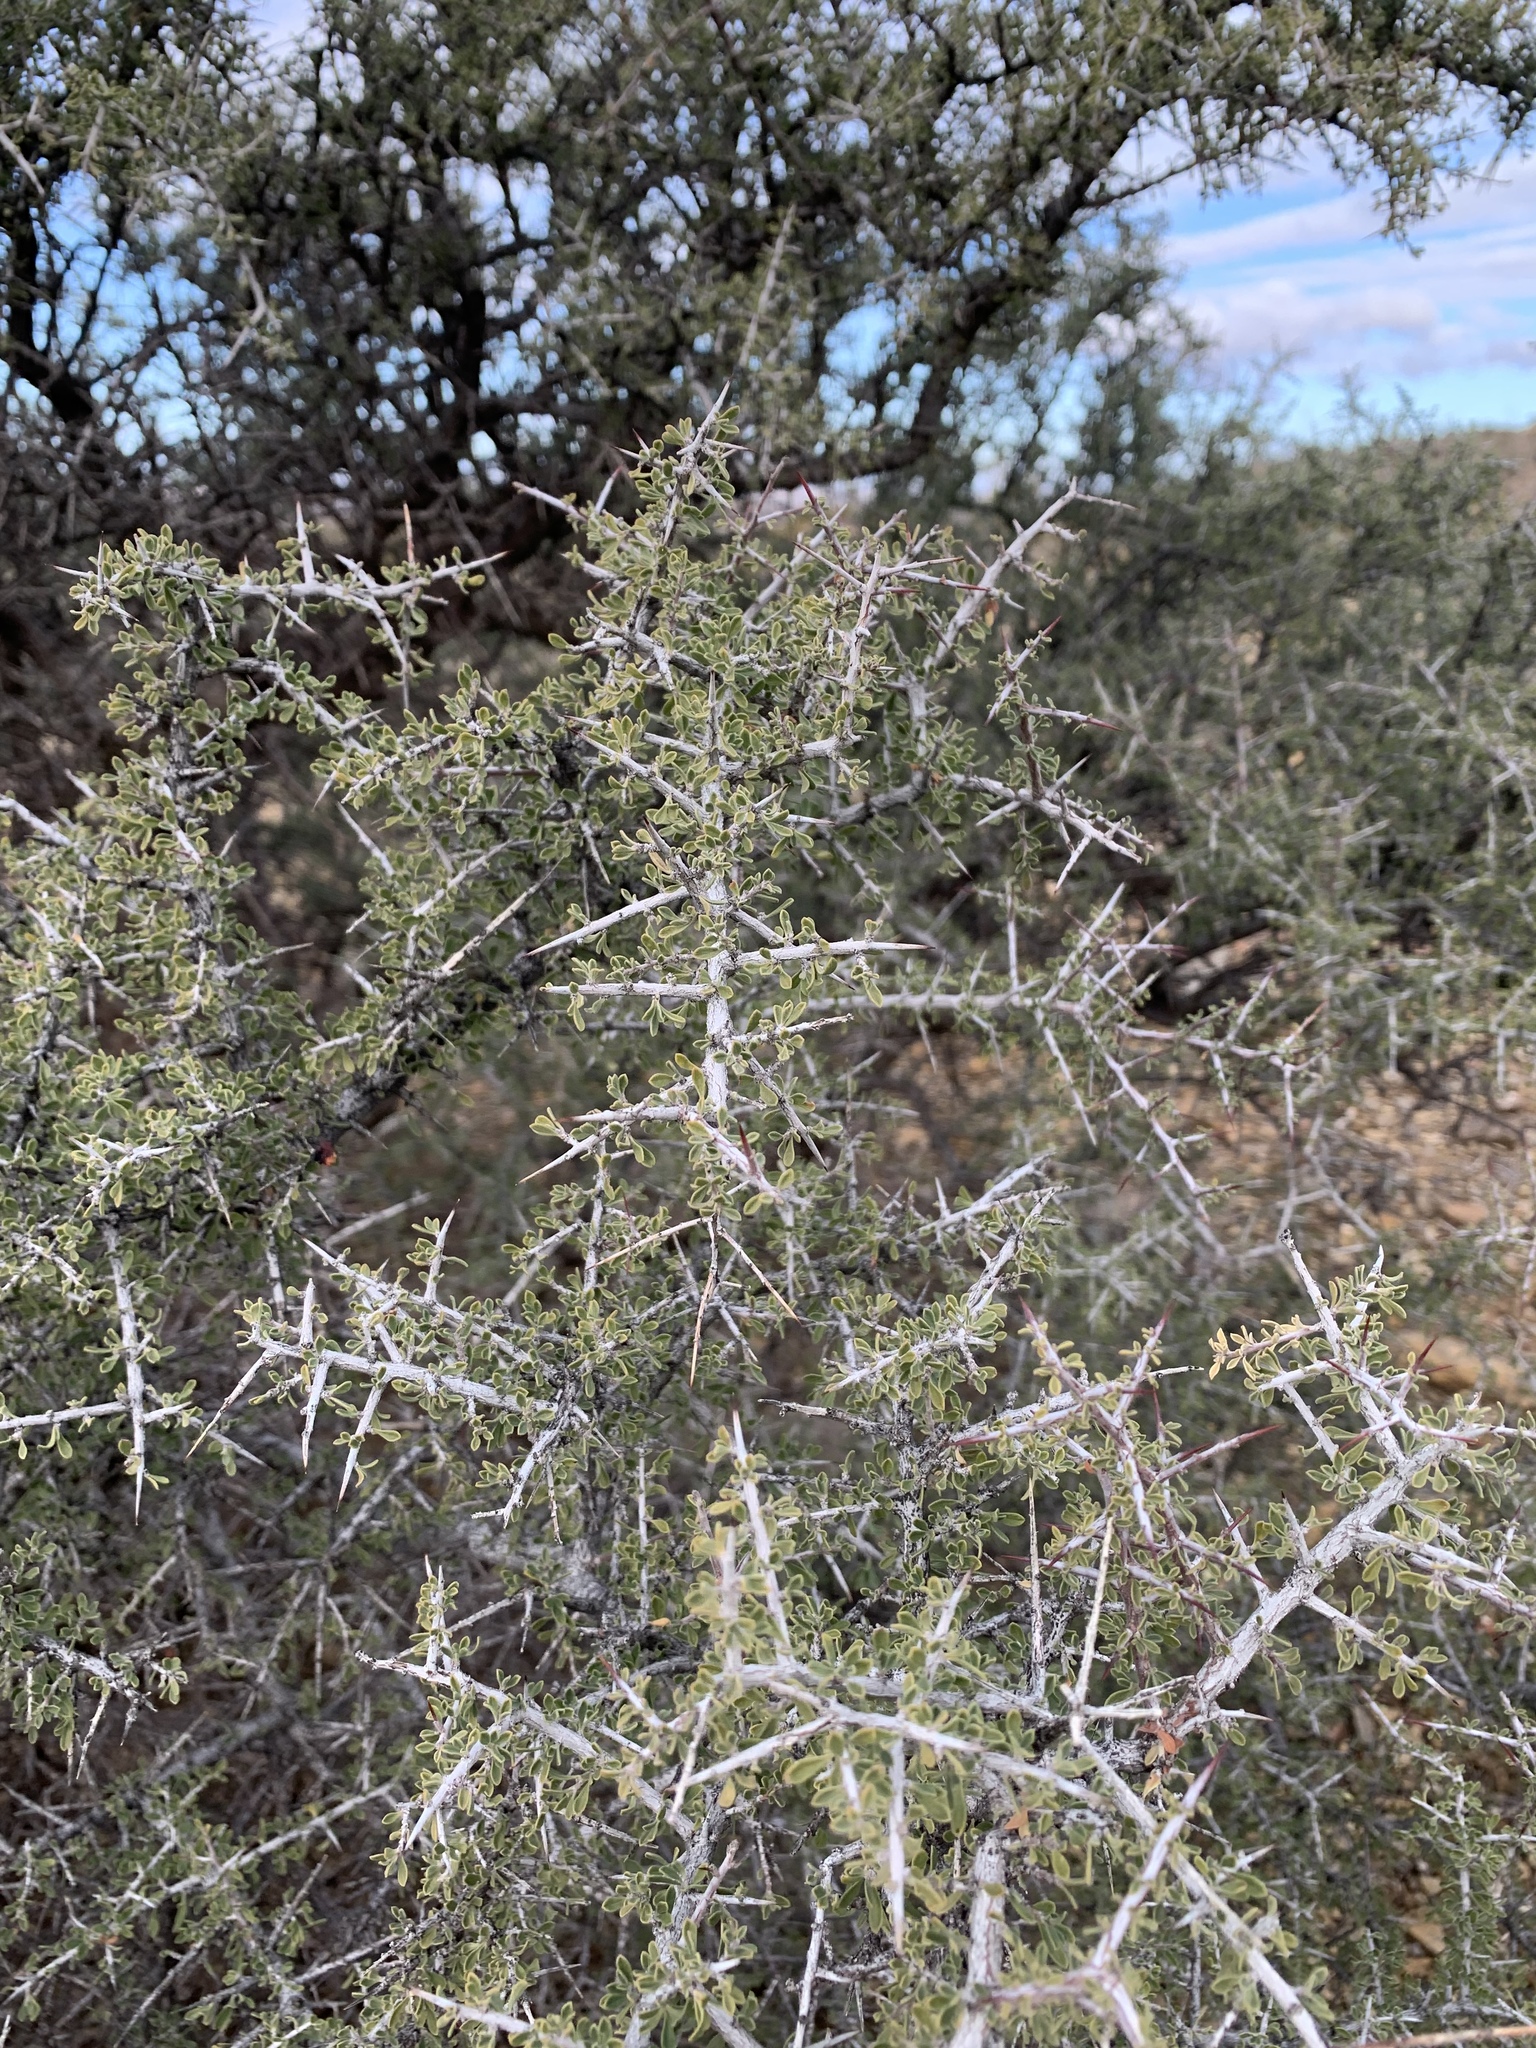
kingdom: Plantae
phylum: Tracheophyta
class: Magnoliopsida
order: Rosales
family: Rhamnaceae
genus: Condalia
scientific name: Condalia warnockii
